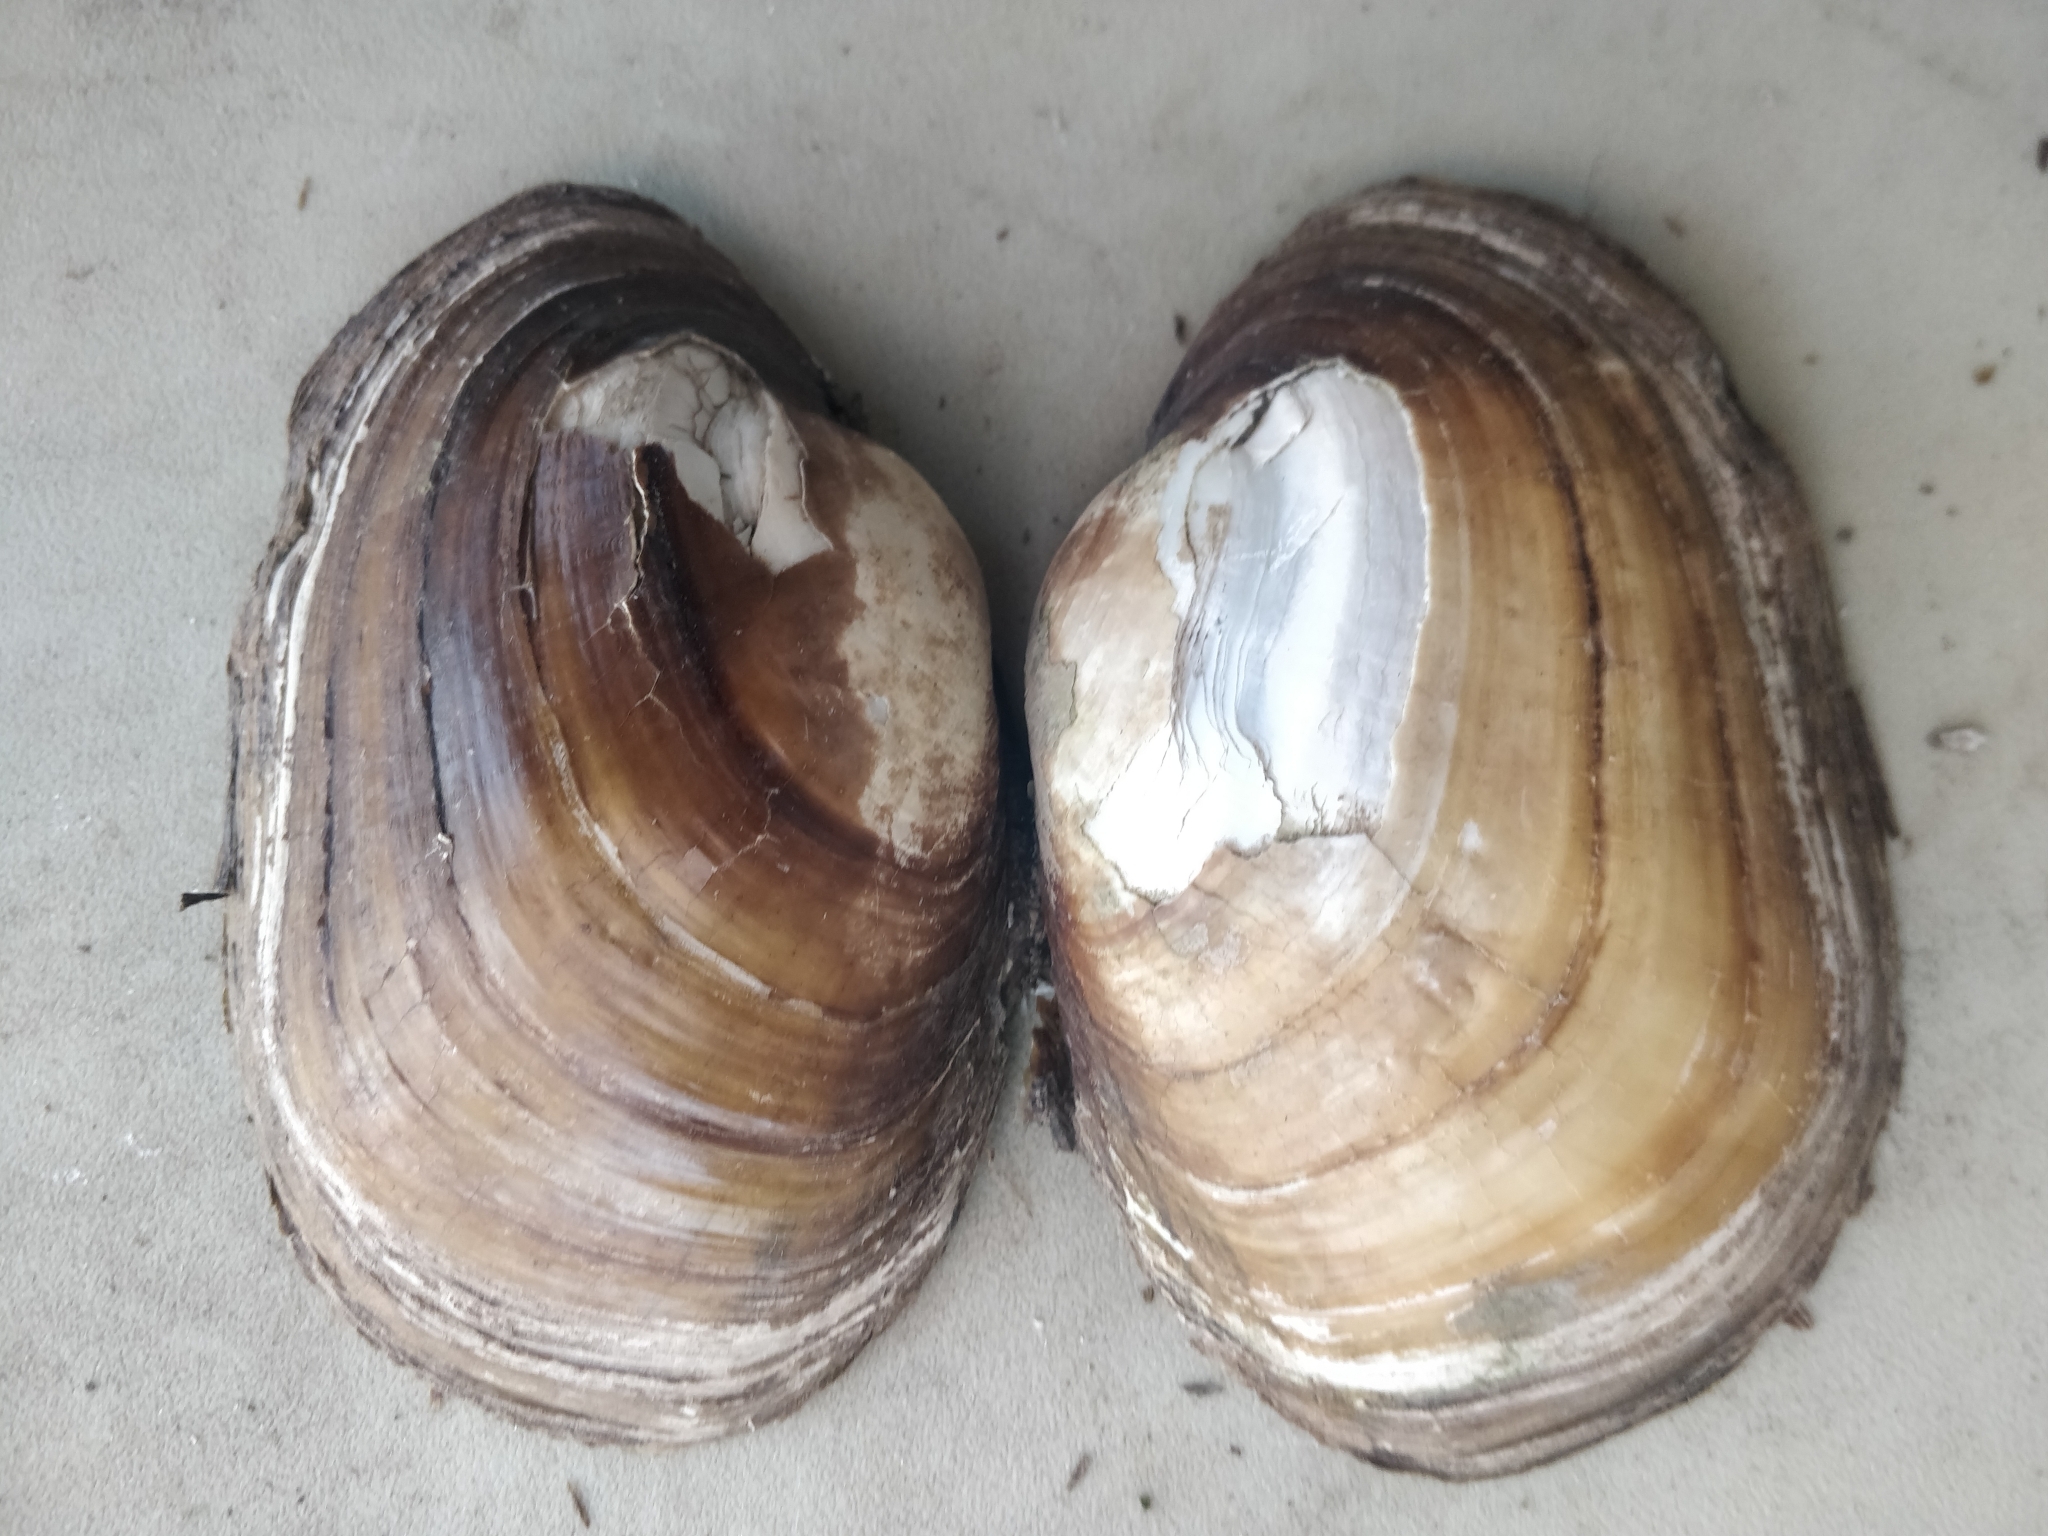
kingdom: Animalia
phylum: Mollusca
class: Bivalvia
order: Unionida
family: Unionidae
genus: Lampsilis
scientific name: Lampsilis cardium
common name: Plain pocketbook
